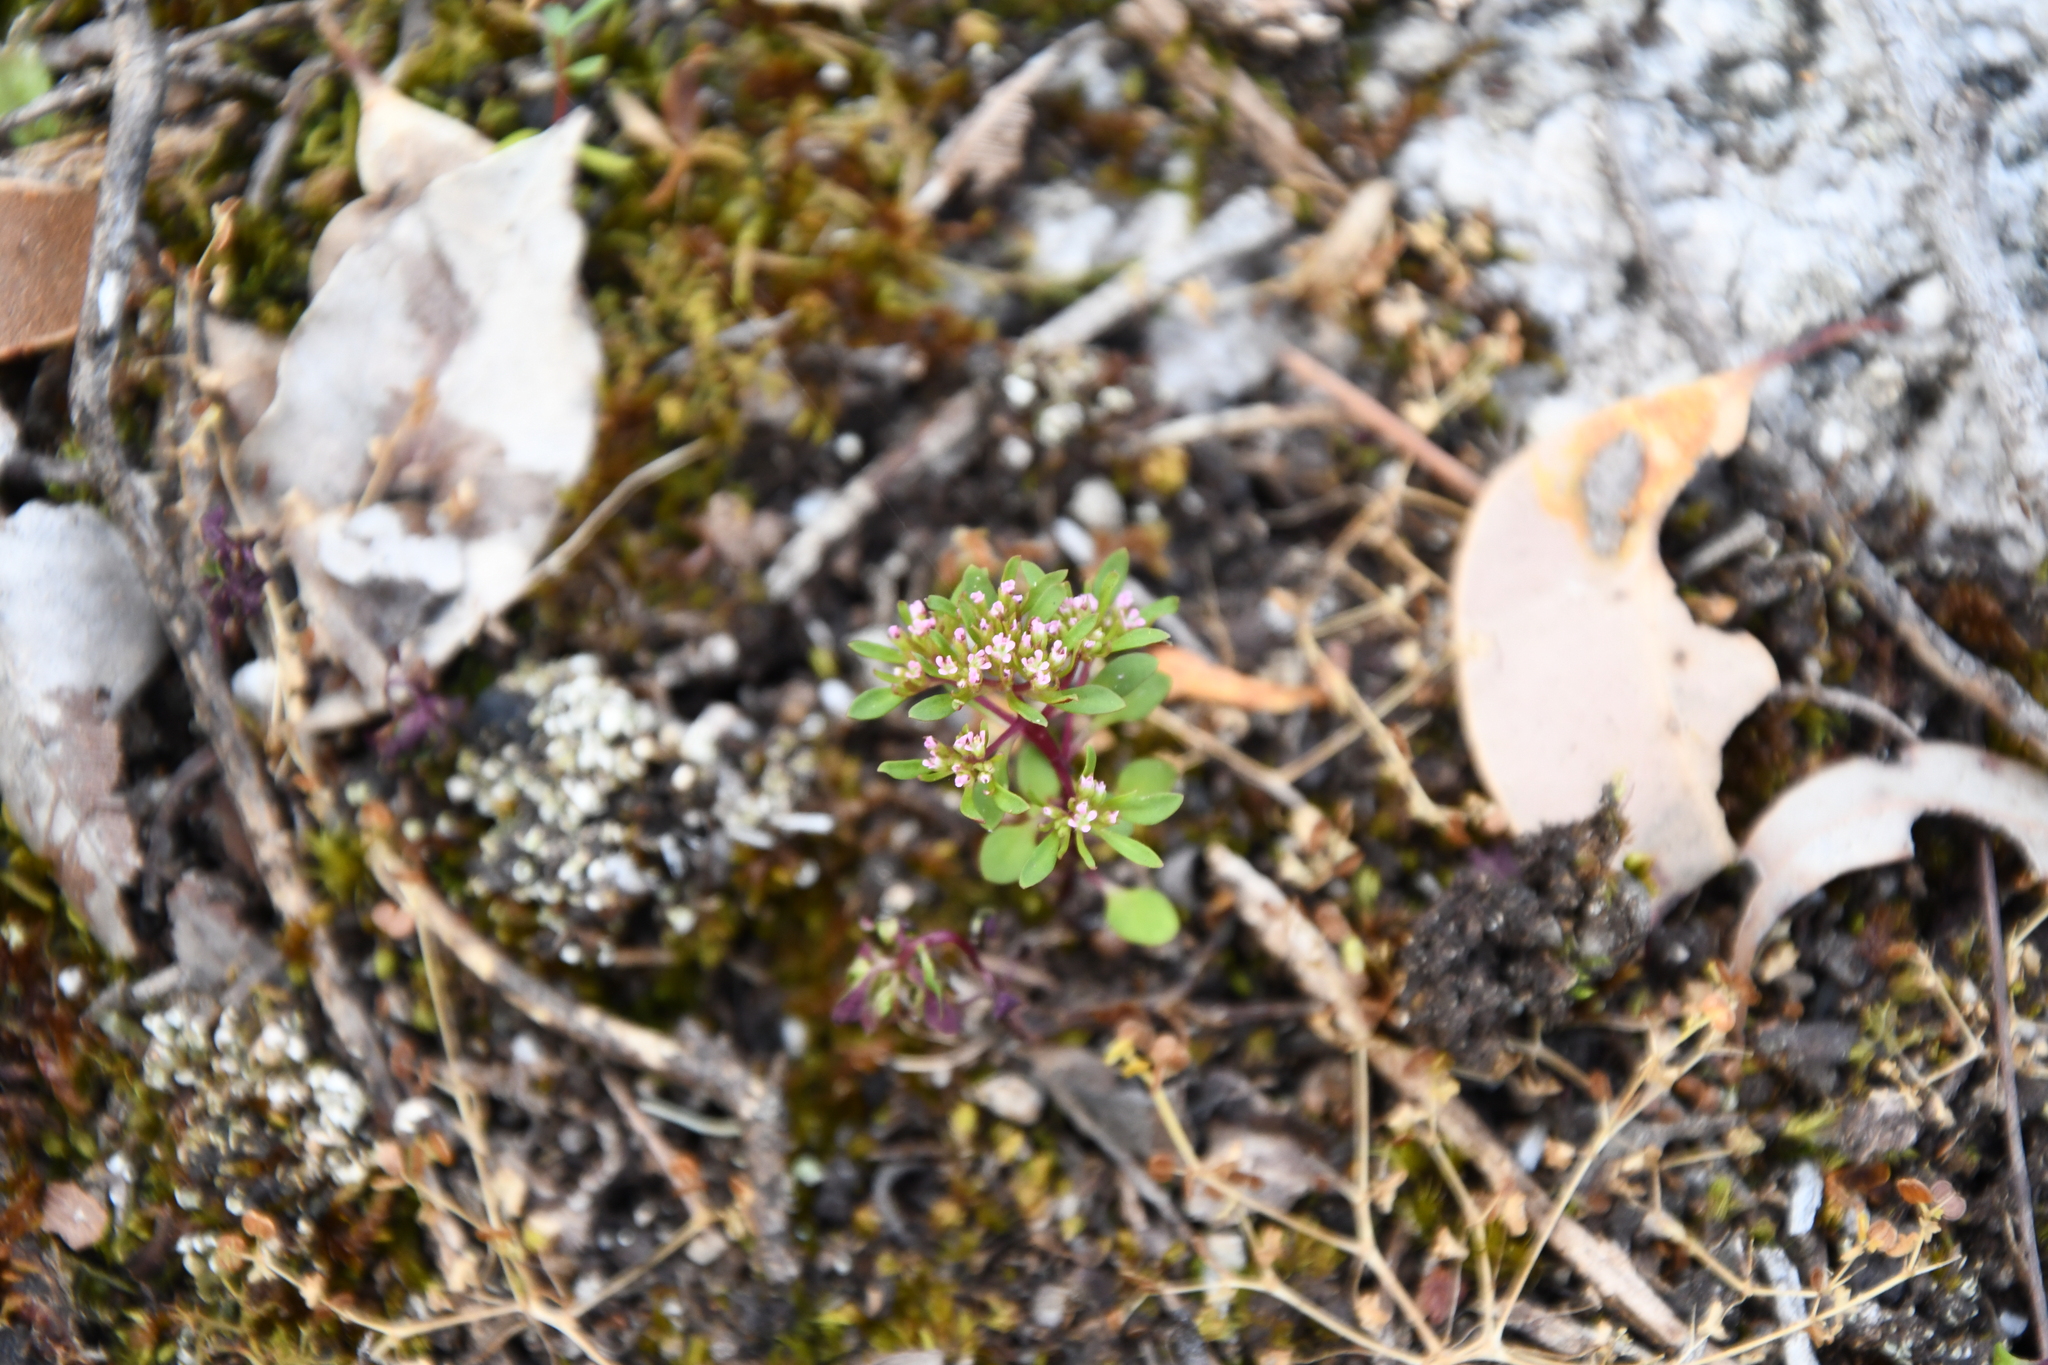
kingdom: Plantae
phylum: Tracheophyta
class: Magnoliopsida
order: Asterales
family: Stylidiaceae
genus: Levenhookia
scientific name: Levenhookia pusilla
